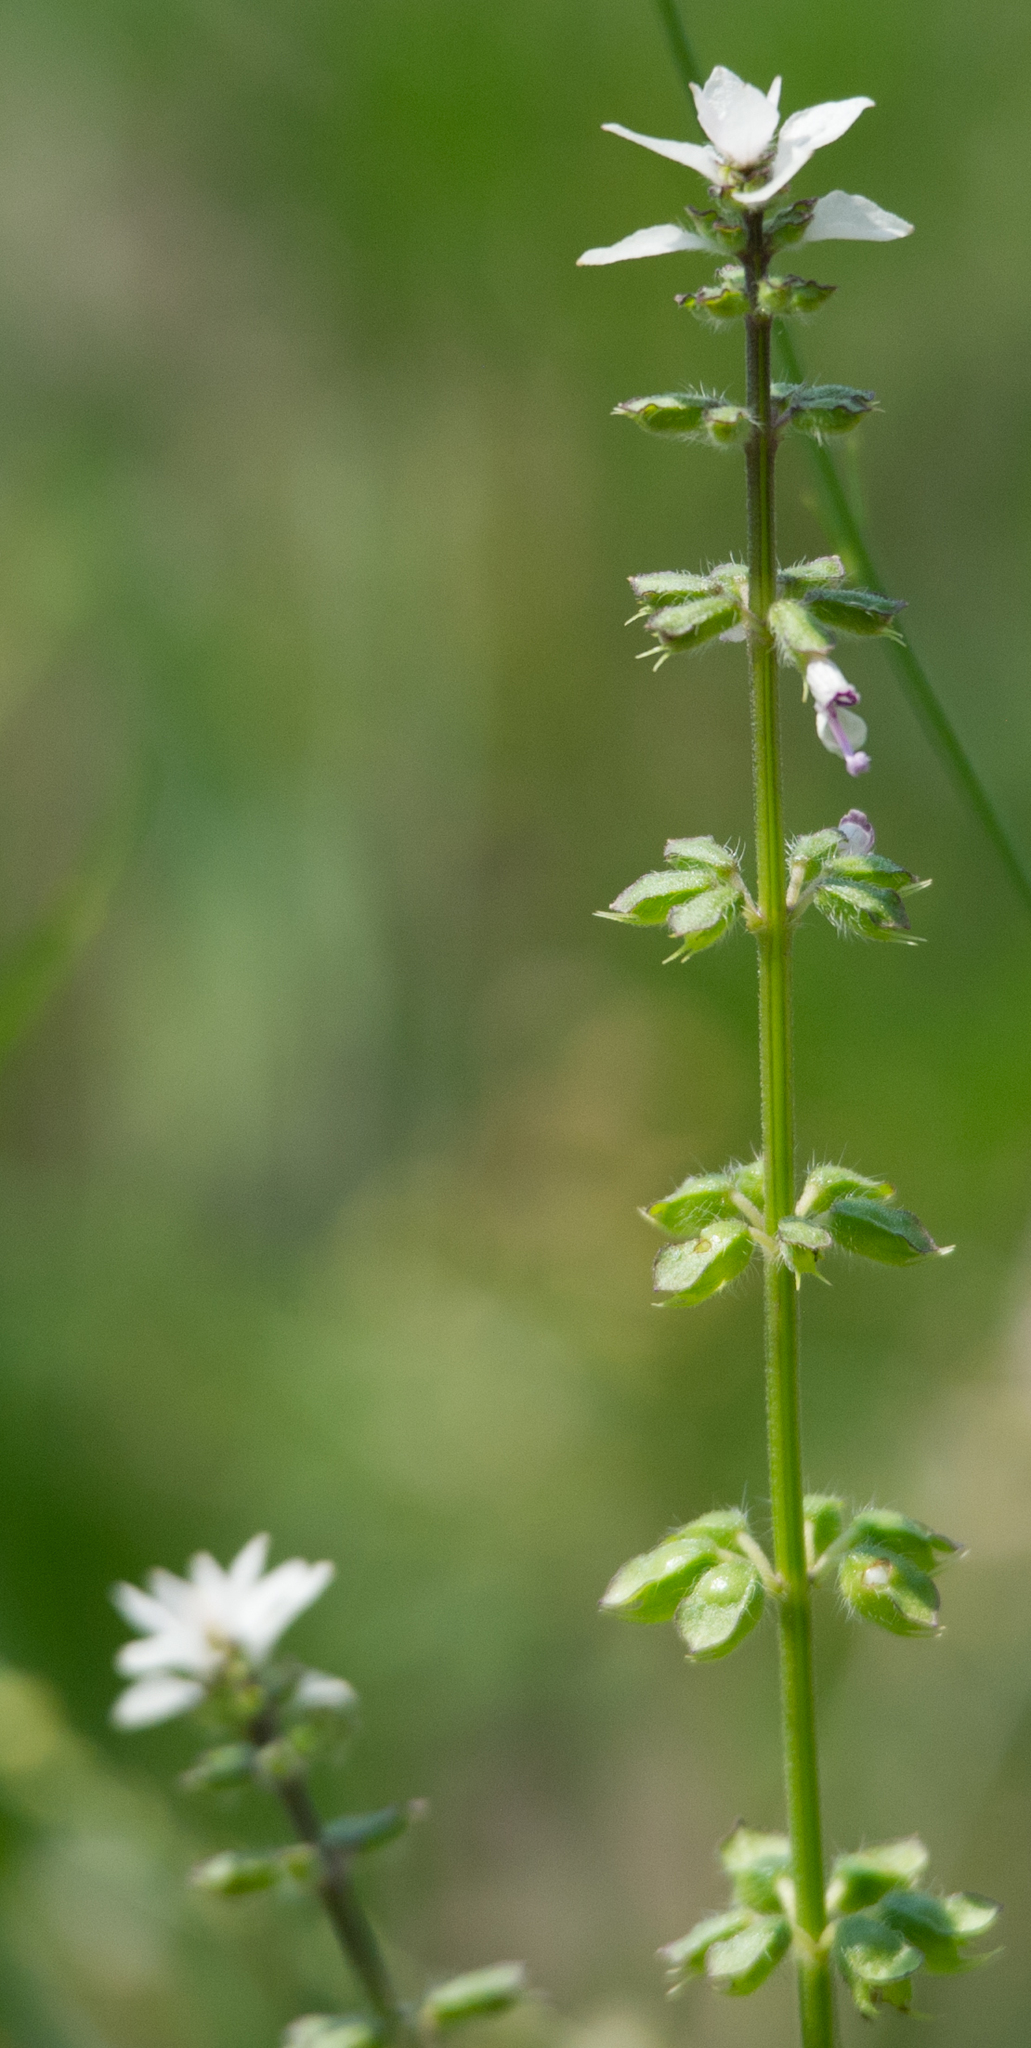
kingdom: Plantae
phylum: Tracheophyta
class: Magnoliopsida
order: Lamiales
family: Lamiaceae
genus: Syncolostemon
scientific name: Syncolostemon bracteosus
